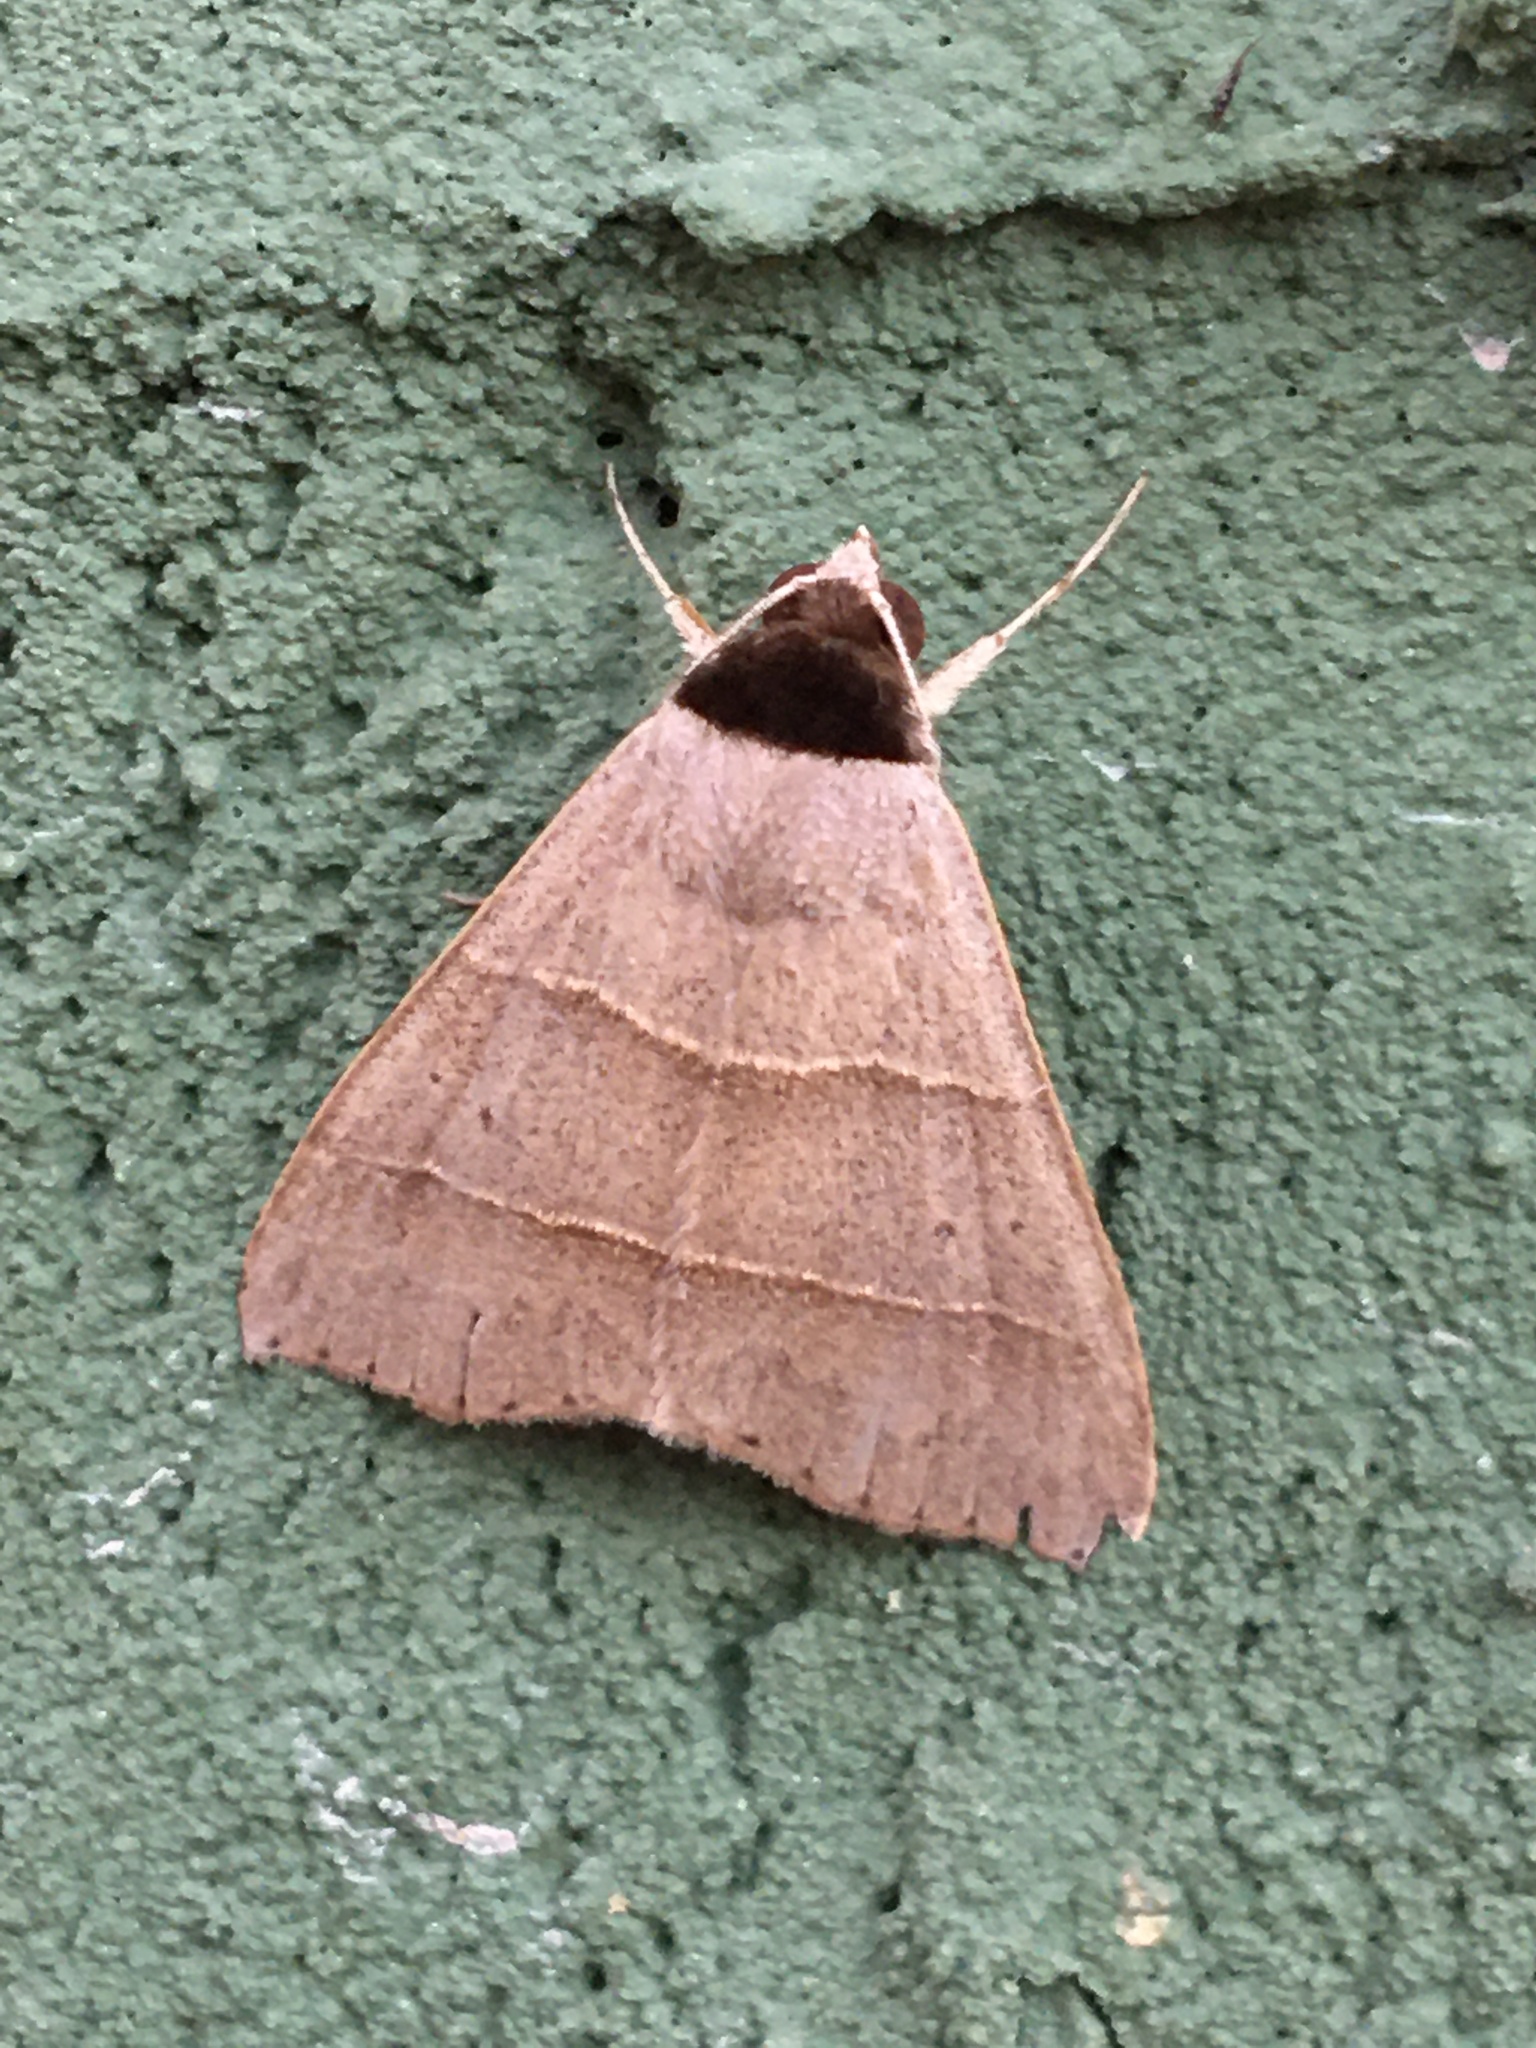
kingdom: Animalia
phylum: Arthropoda
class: Insecta
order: Lepidoptera
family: Erebidae
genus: Baniana
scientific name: Baniana ostia
